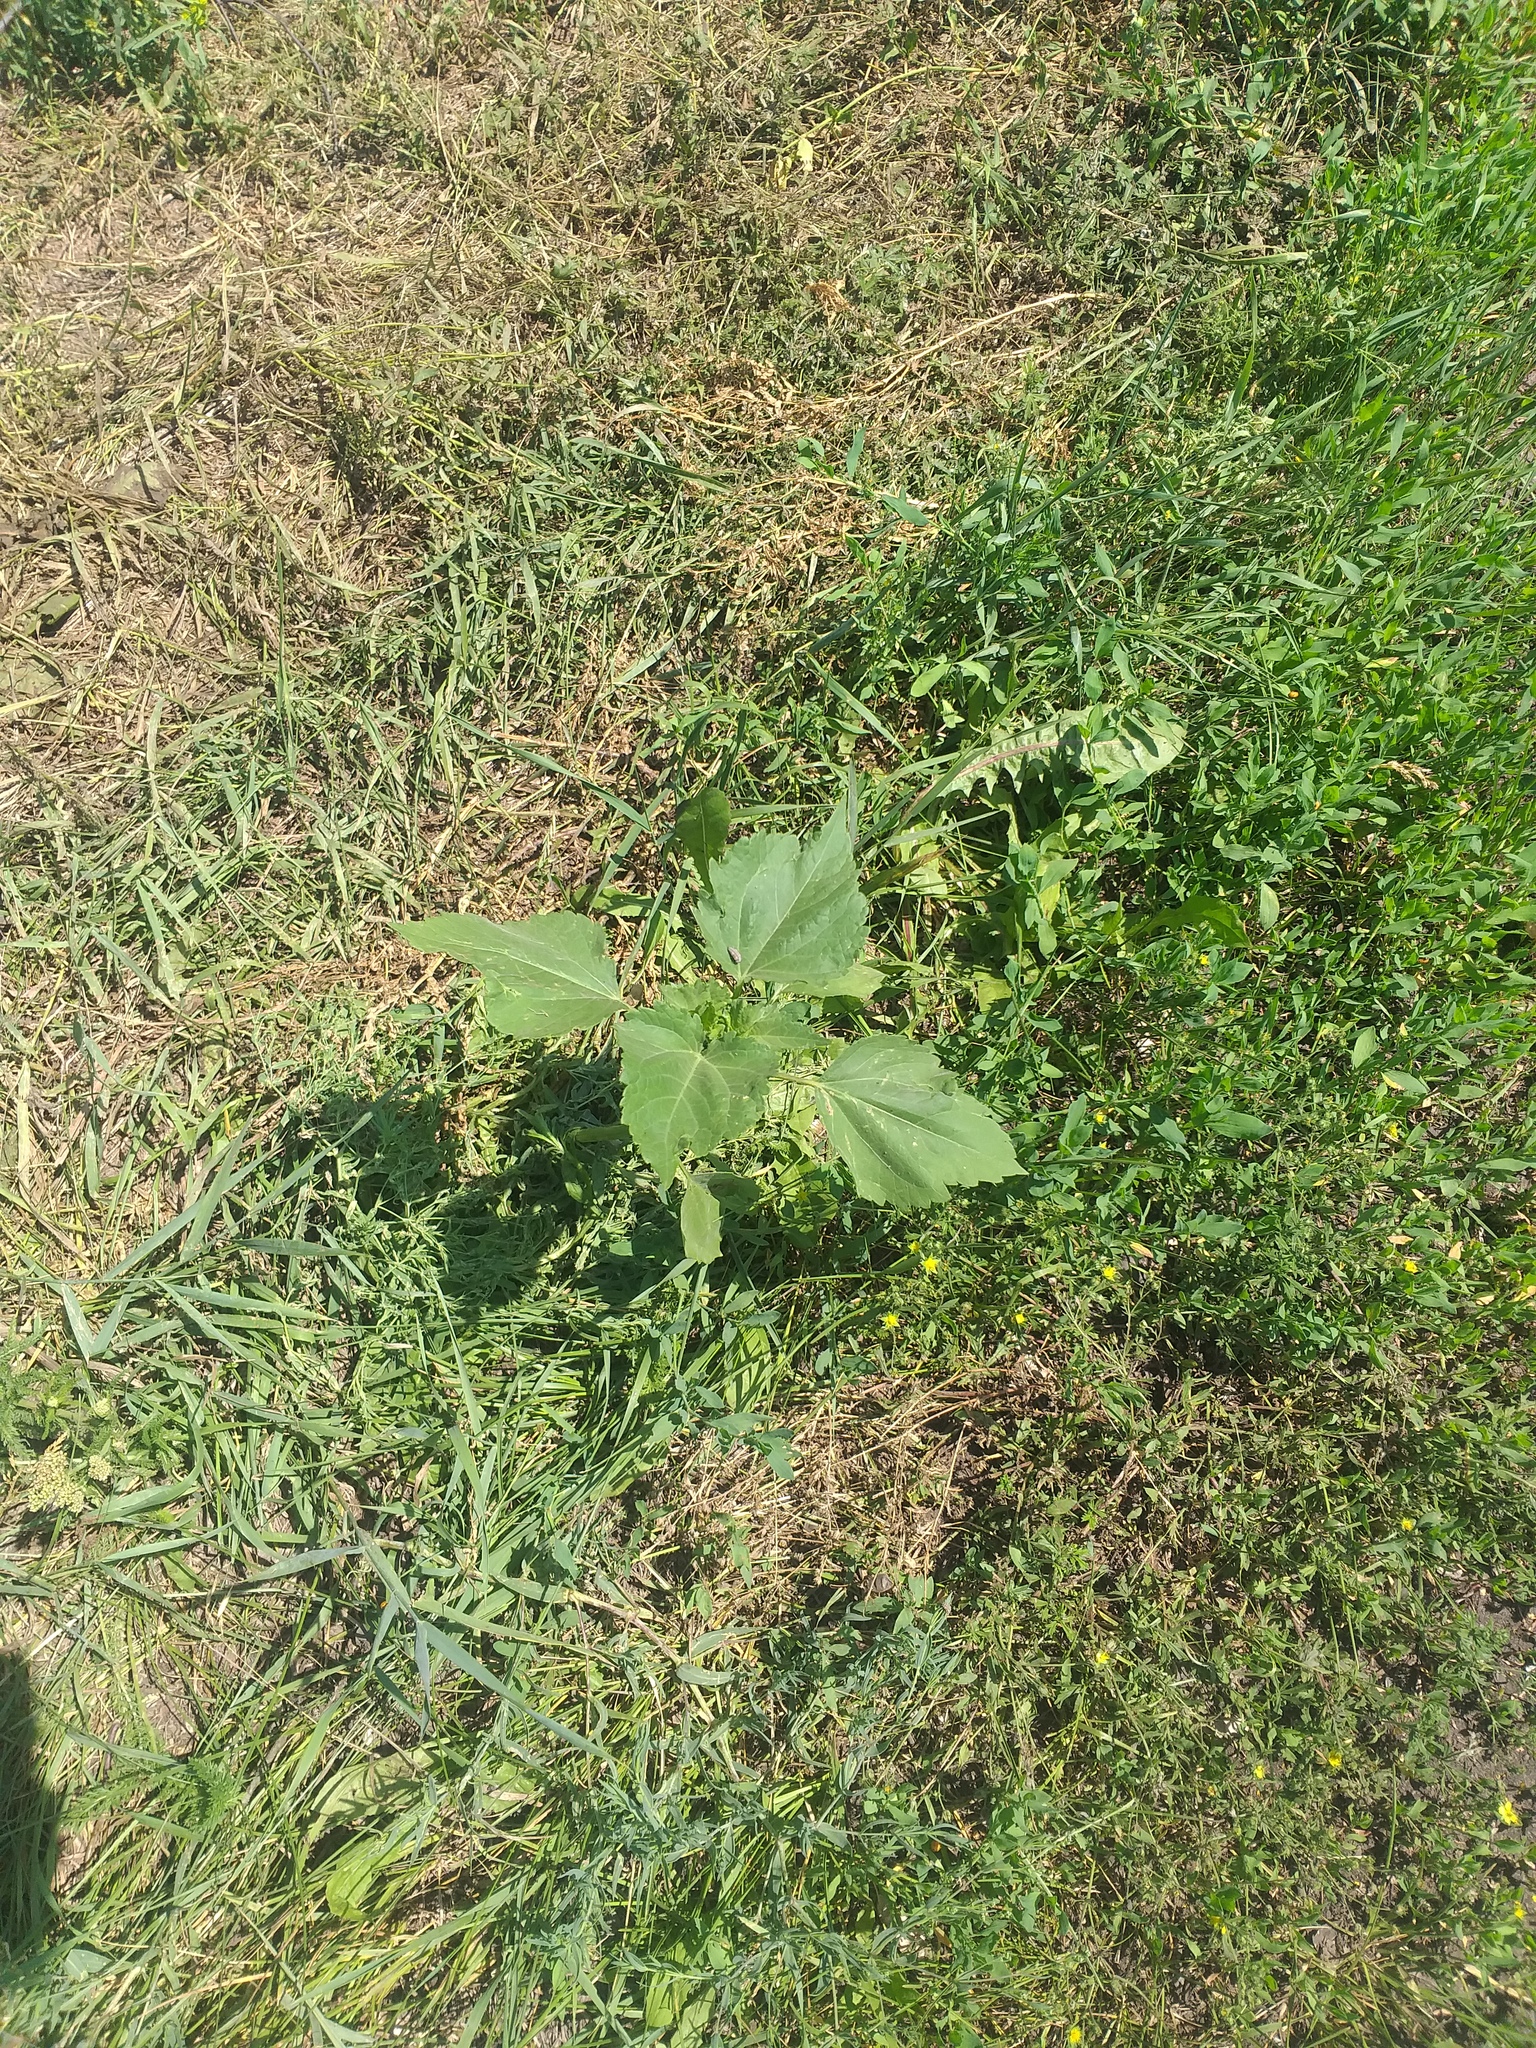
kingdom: Plantae
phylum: Tracheophyta
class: Magnoliopsida
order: Asterales
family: Asteraceae
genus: Cyclachaena
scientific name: Cyclachaena xanthiifolia
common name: Giant sumpweed
